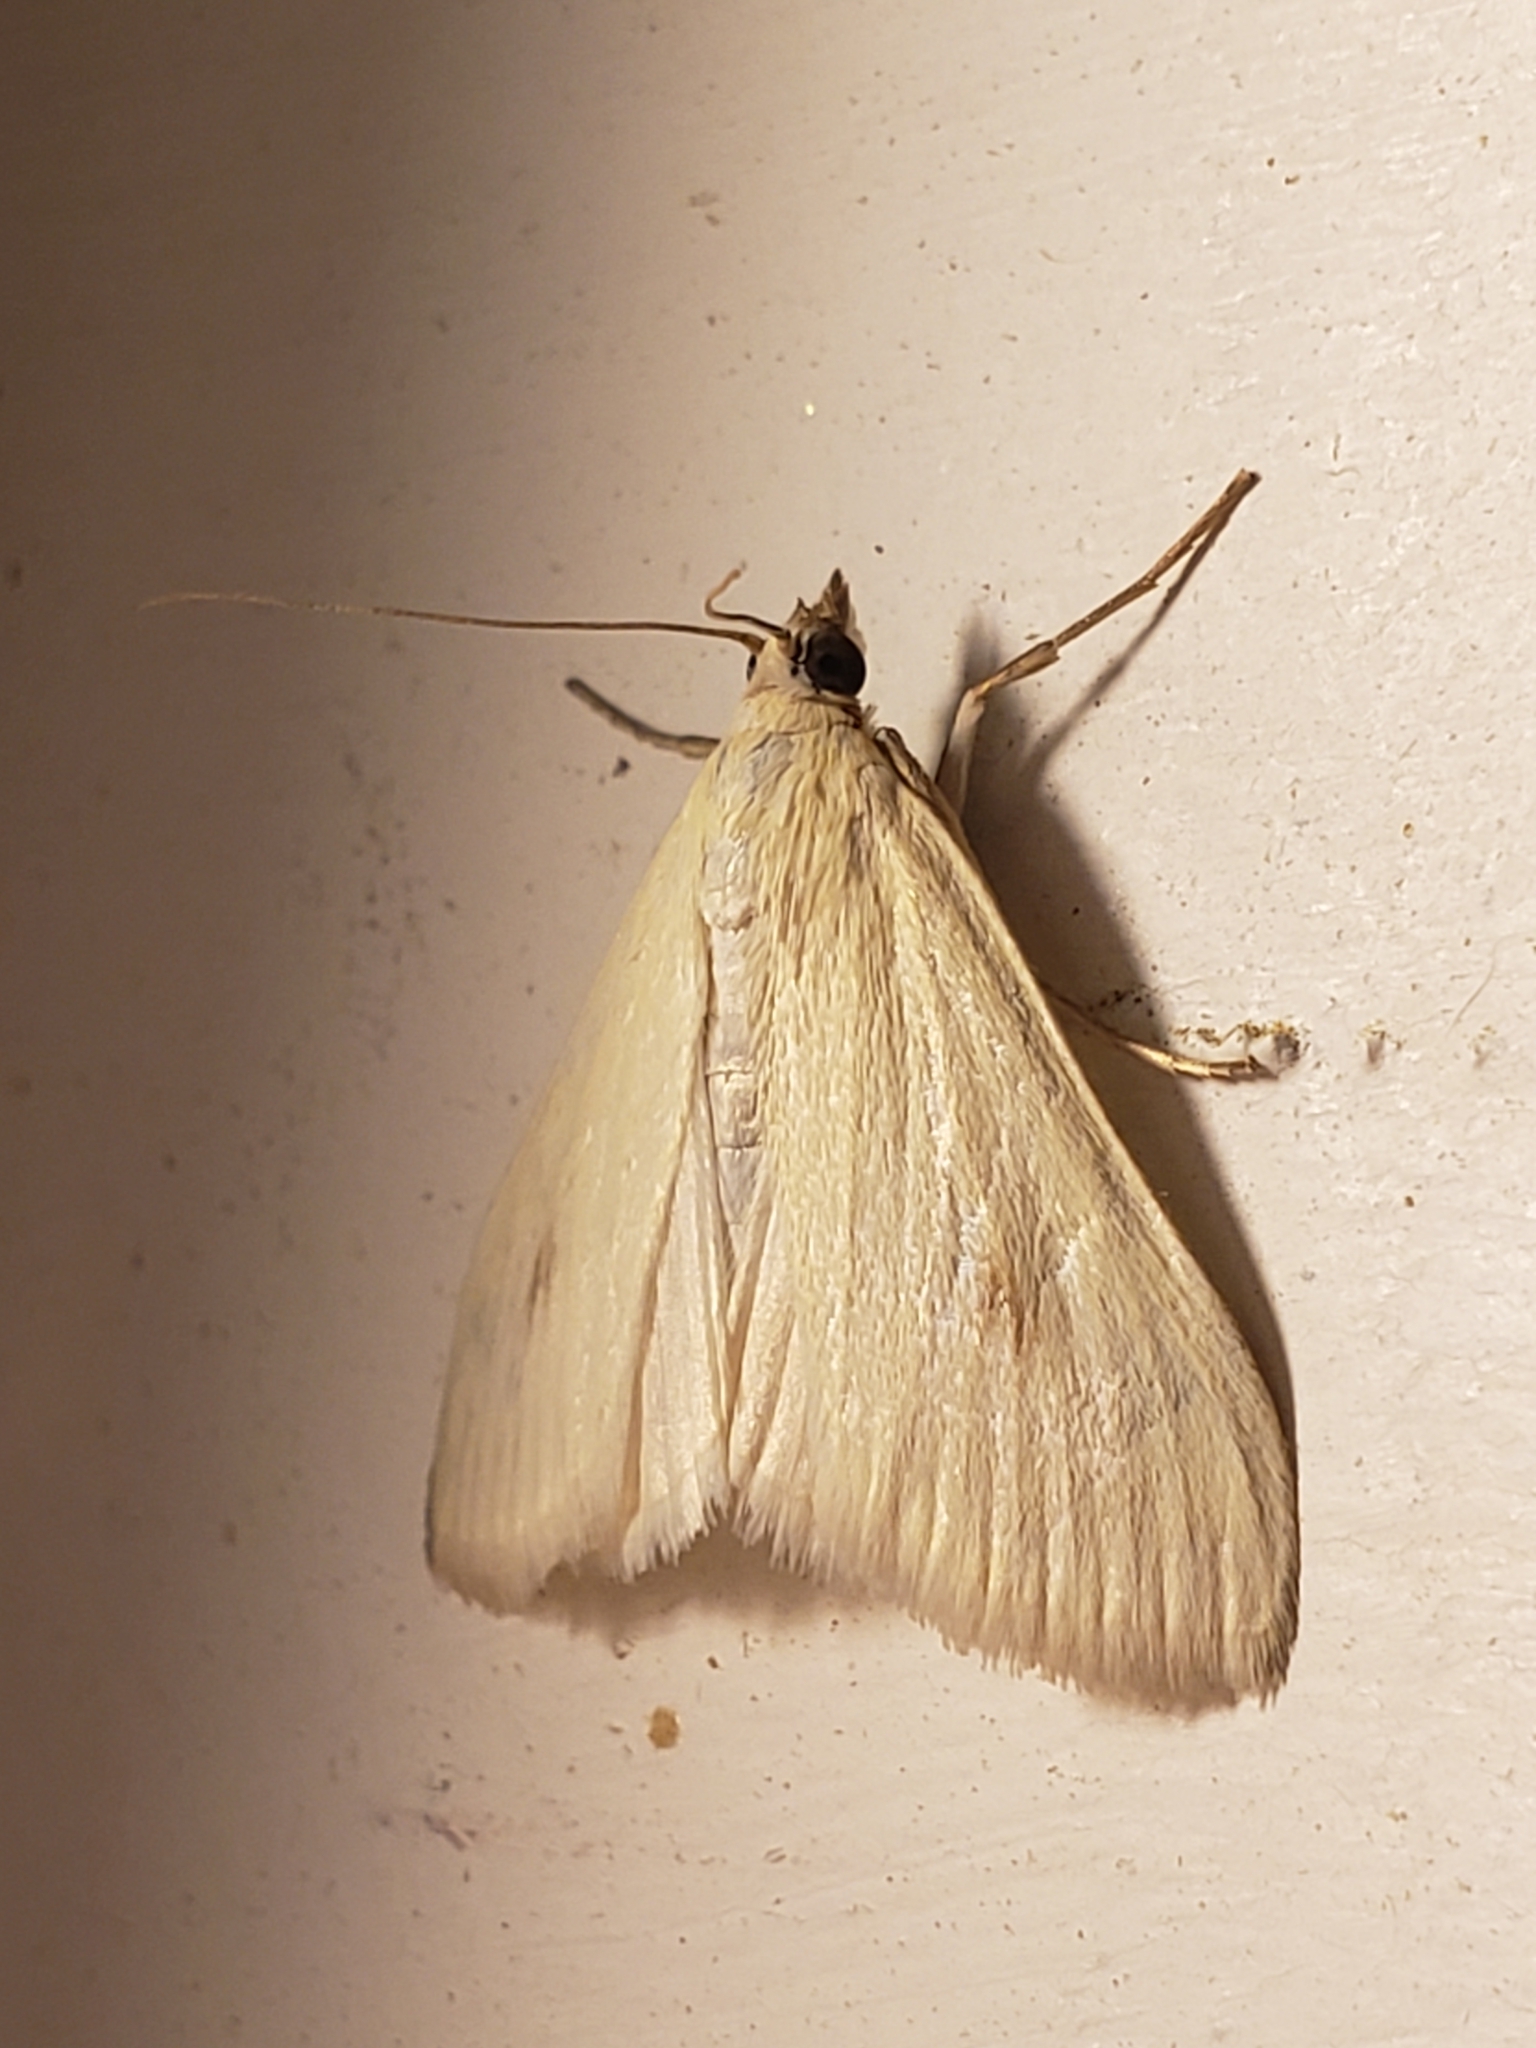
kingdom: Animalia
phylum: Arthropoda
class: Insecta
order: Lepidoptera
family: Crambidae
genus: Sitochroa
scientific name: Sitochroa palealis
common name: Greenish-yellow sitochroa moth
